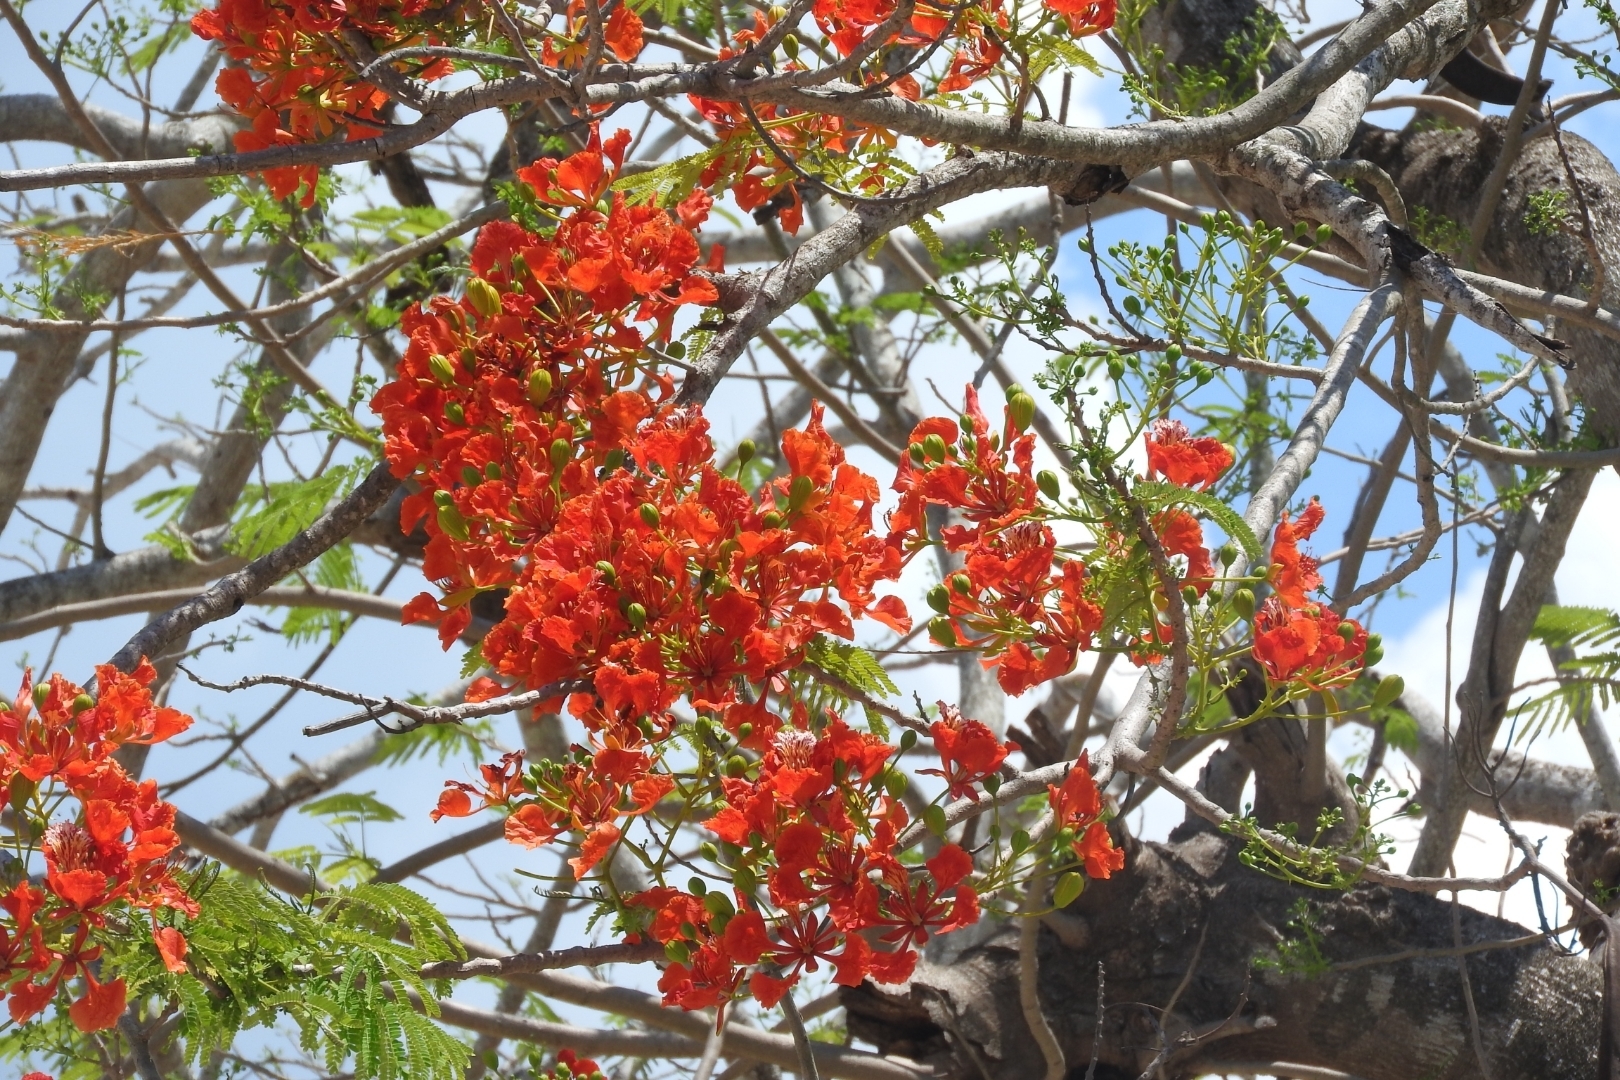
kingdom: Plantae
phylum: Tracheophyta
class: Magnoliopsida
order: Fabales
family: Fabaceae
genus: Delonix
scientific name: Delonix regia
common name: Royal poinciana
